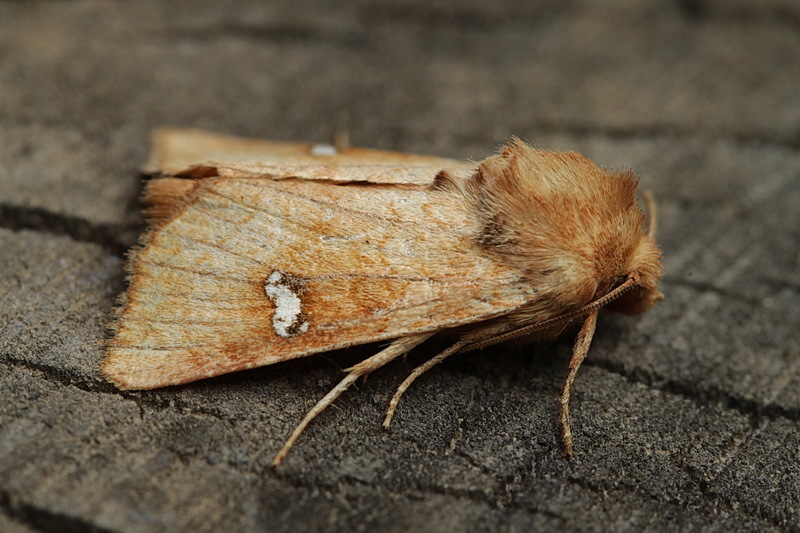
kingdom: Animalia
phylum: Arthropoda
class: Insecta
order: Lepidoptera
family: Noctuidae
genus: Amphipoea
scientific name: Amphipoea ochreola
